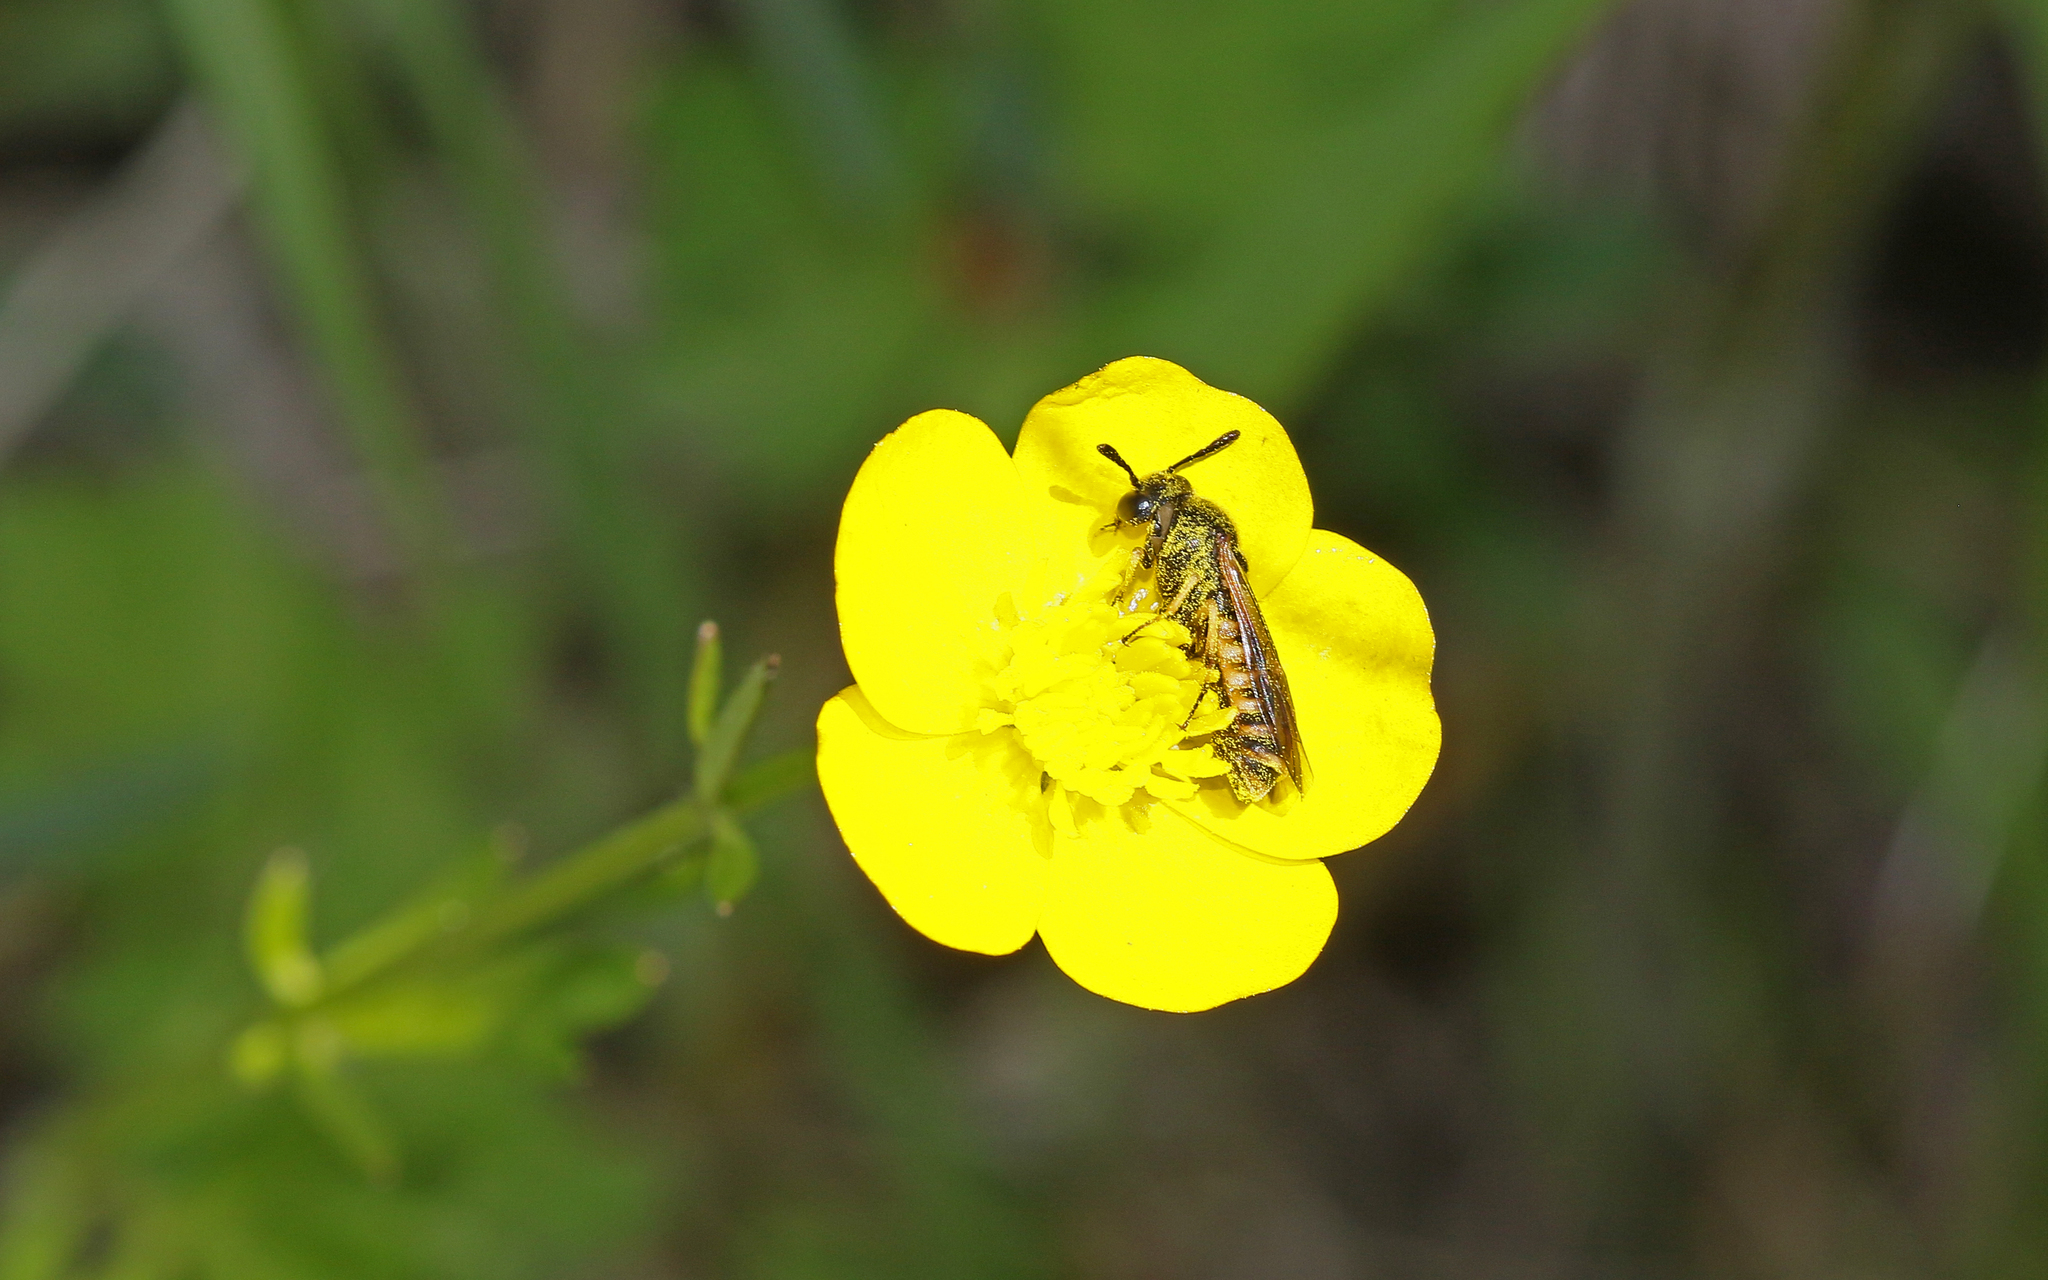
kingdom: Animalia
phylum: Arthropoda
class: Insecta
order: Hymenoptera
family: Cimbicidae
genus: Corynis
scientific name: Corynis crassicornis
